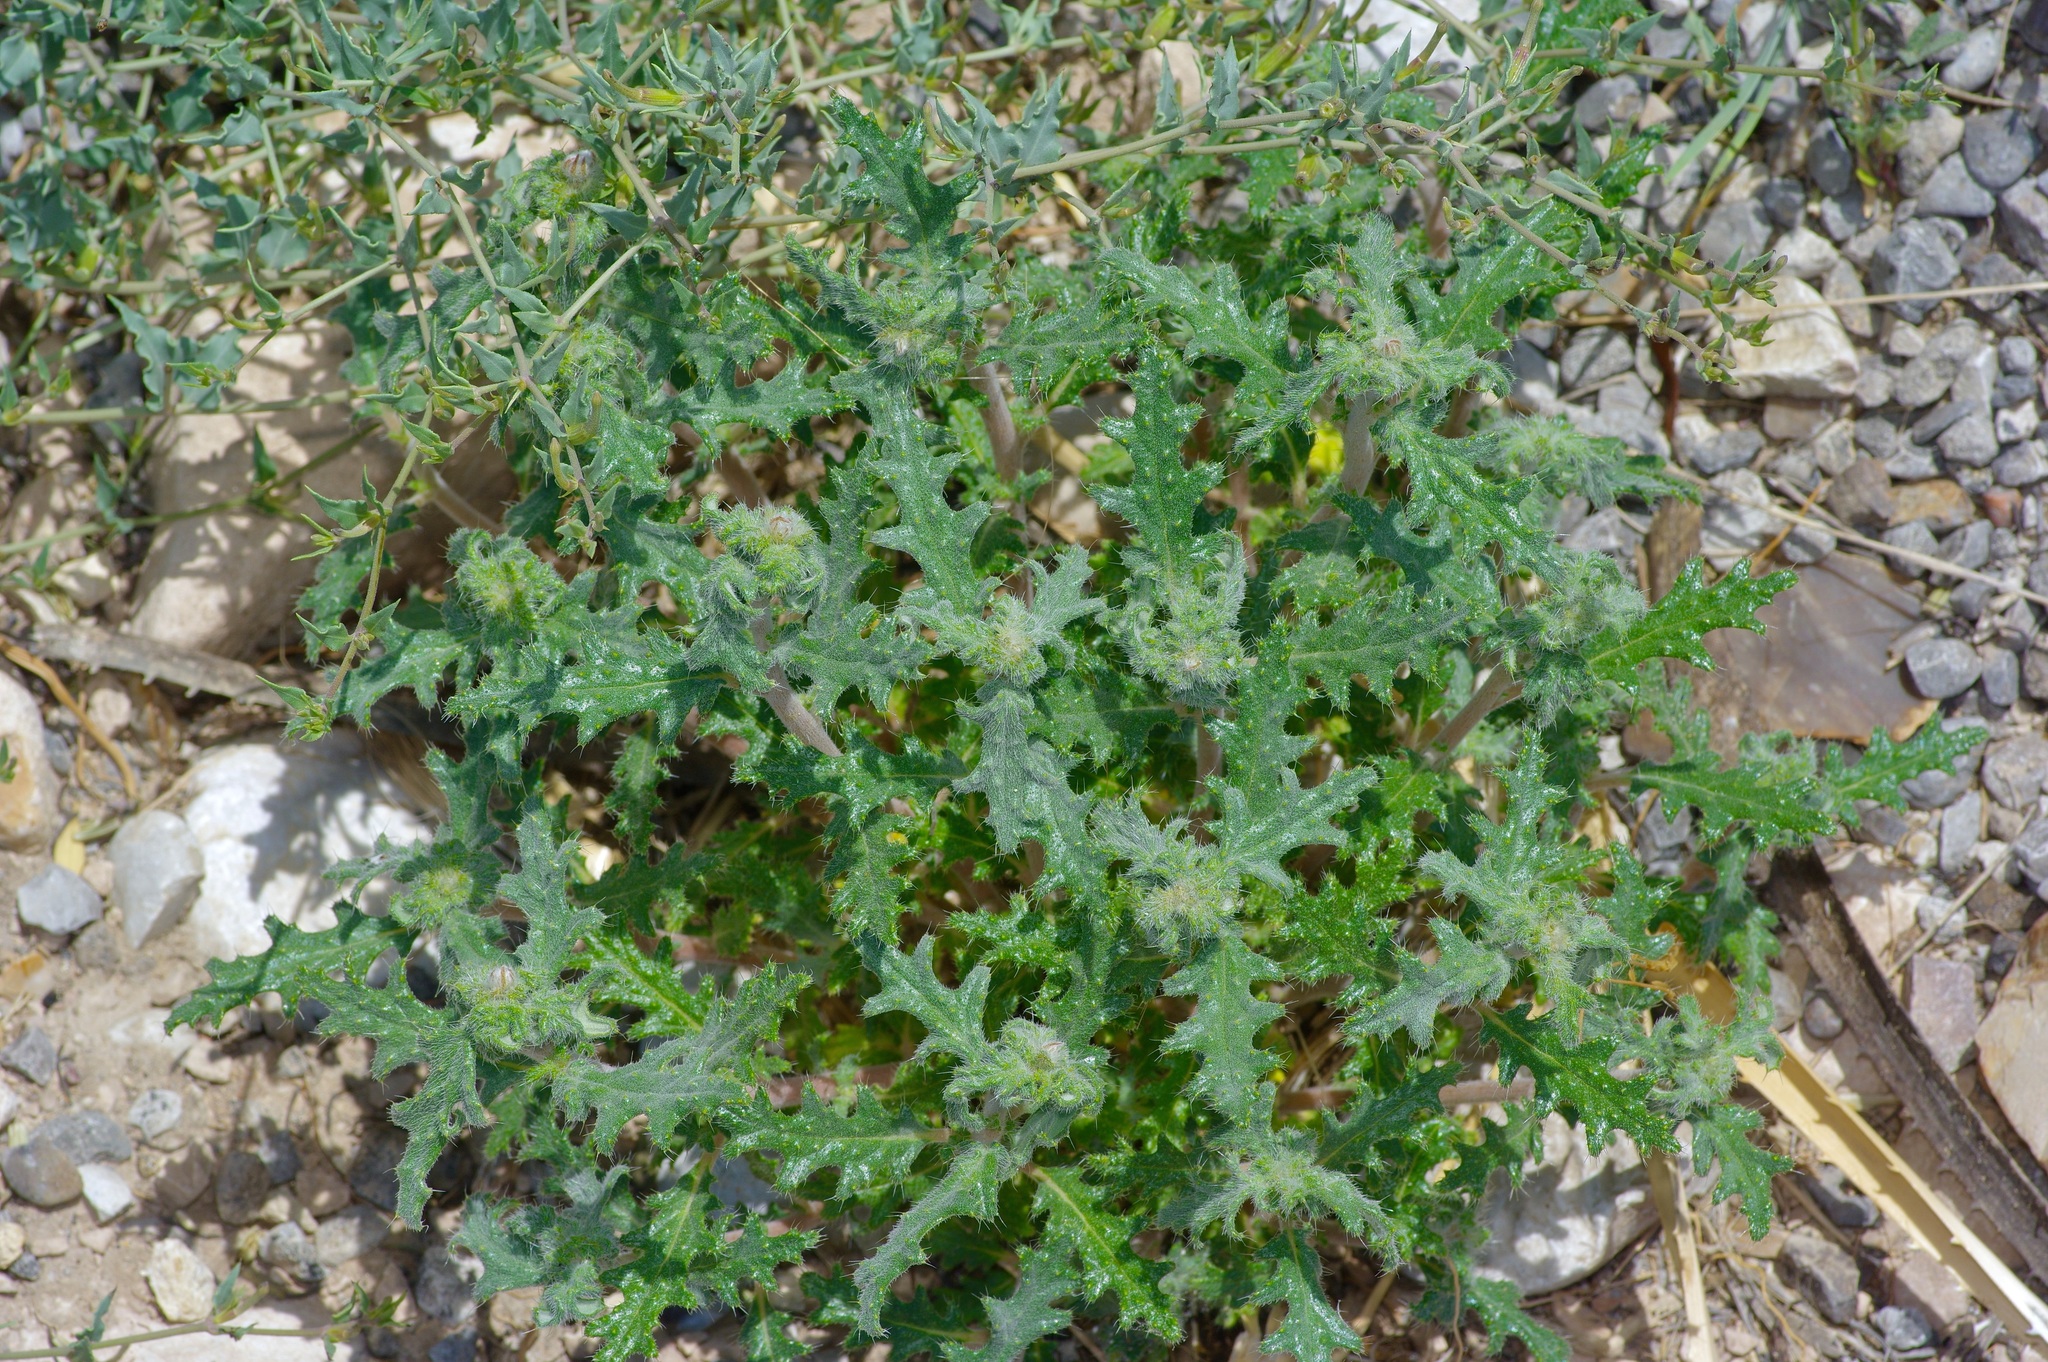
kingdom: Plantae
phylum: Tracheophyta
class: Magnoliopsida
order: Cornales
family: Loasaceae
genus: Cevallia
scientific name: Cevallia sinuata
